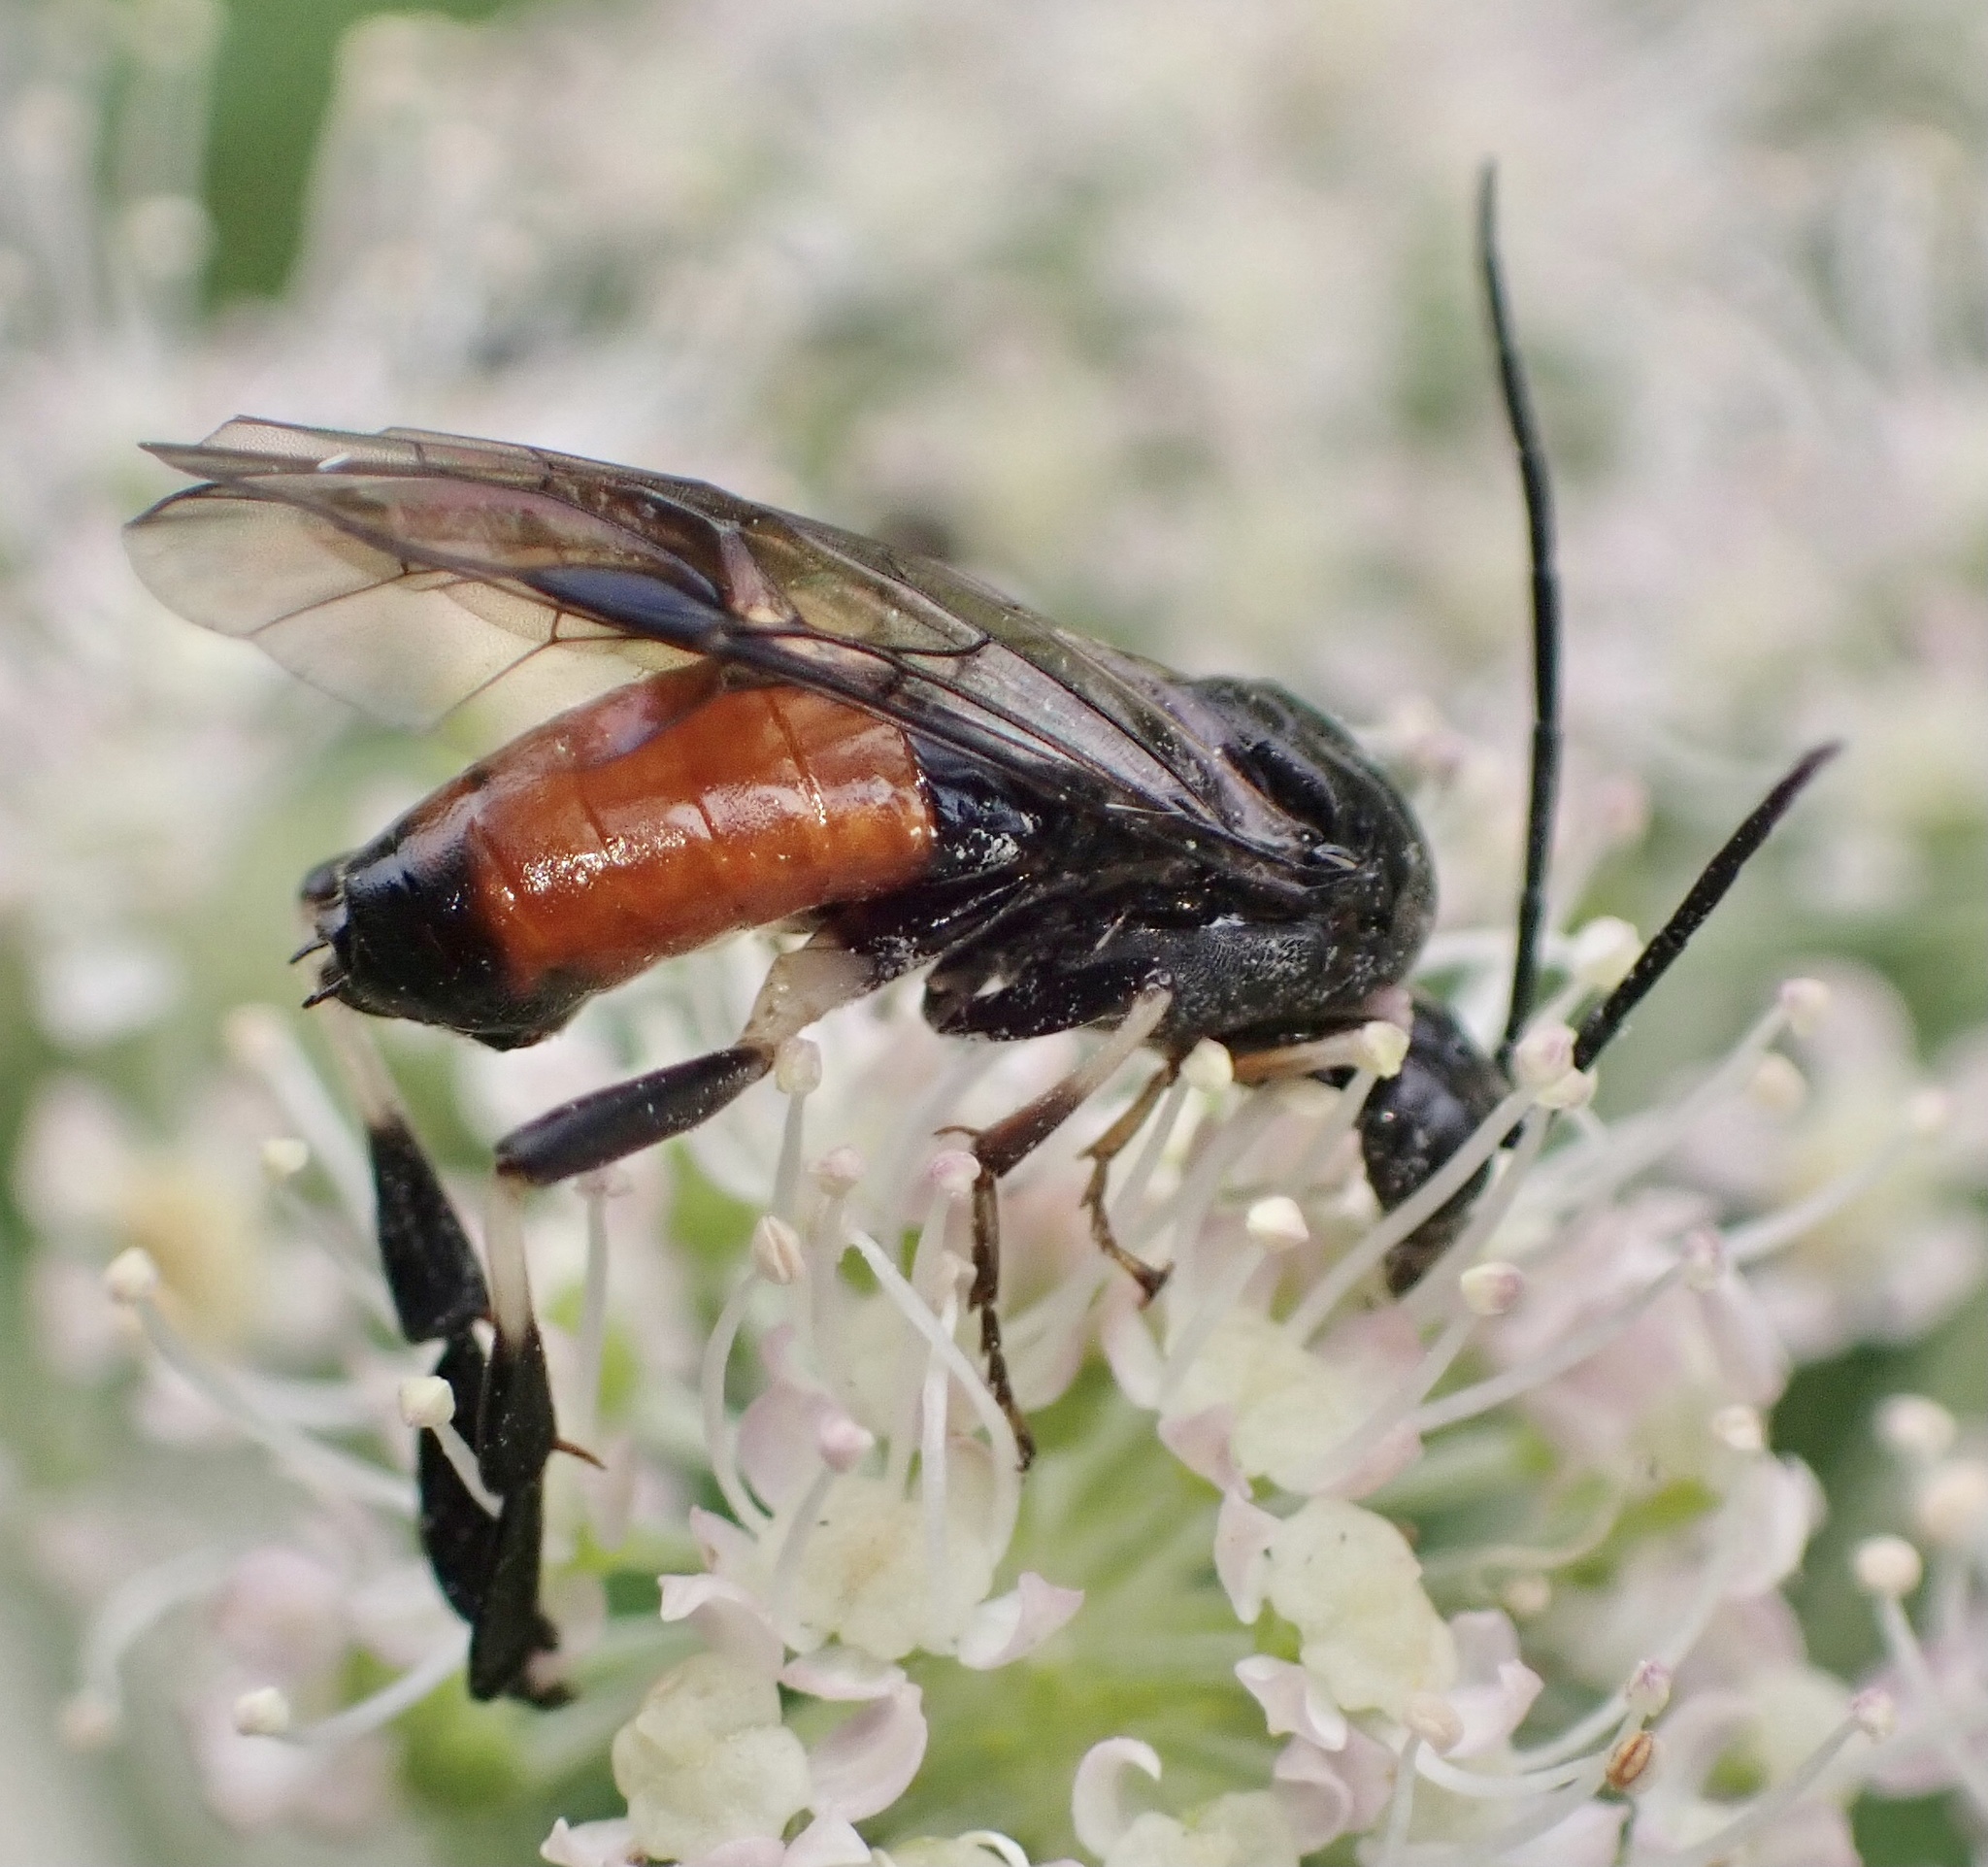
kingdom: Animalia
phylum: Arthropoda
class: Insecta
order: Hymenoptera
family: Tenthredinidae
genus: Craesus
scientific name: Craesus septentrionalis
